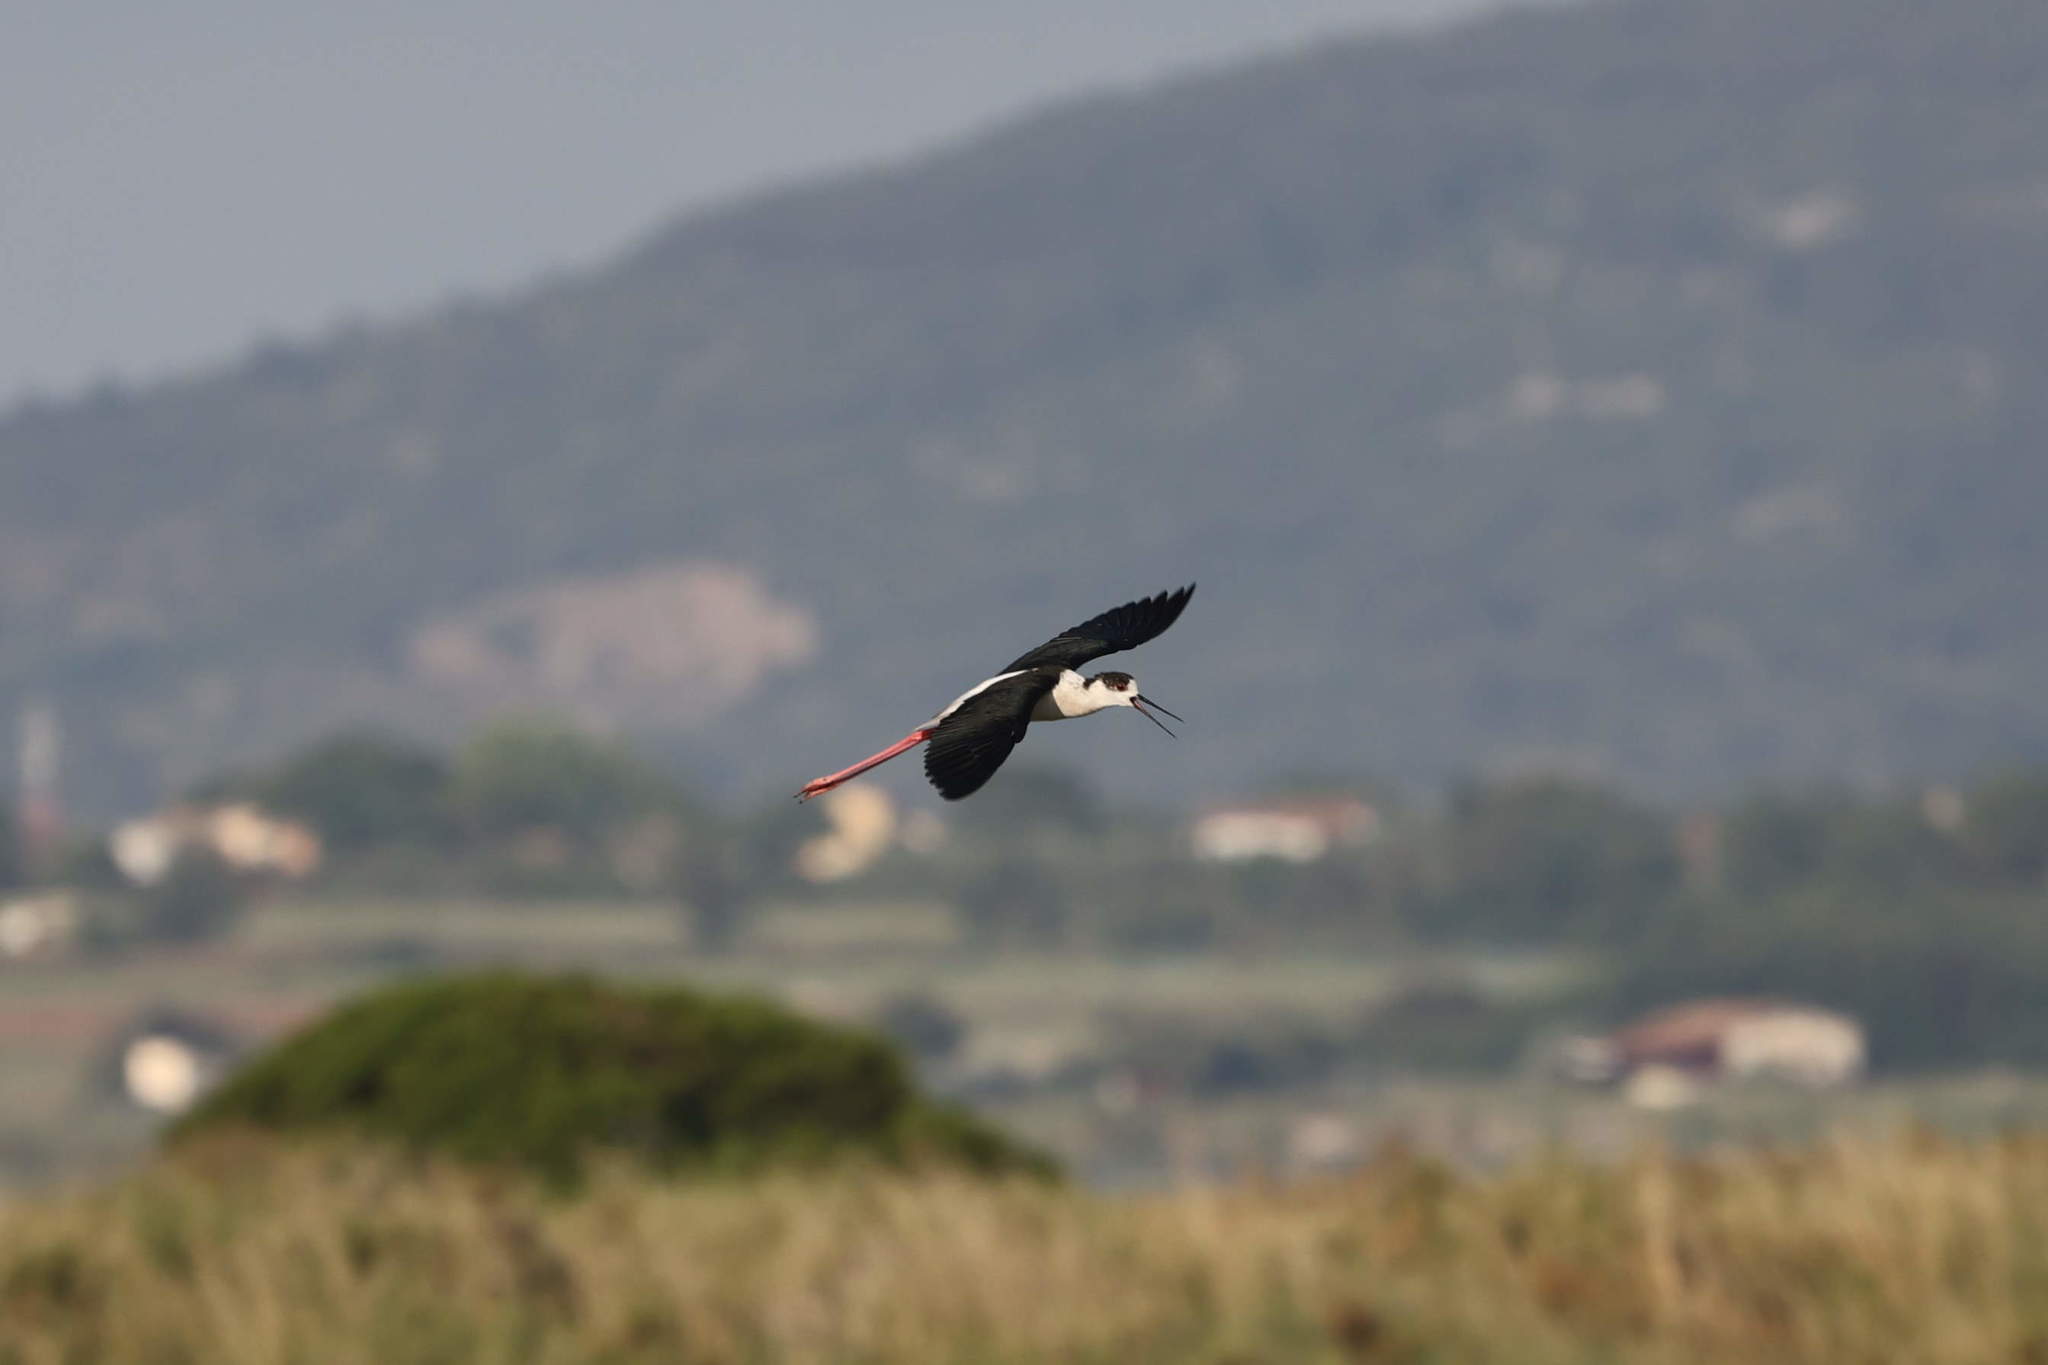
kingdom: Animalia
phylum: Chordata
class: Aves
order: Charadriiformes
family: Recurvirostridae
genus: Himantopus
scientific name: Himantopus himantopus
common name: Black-winged stilt
